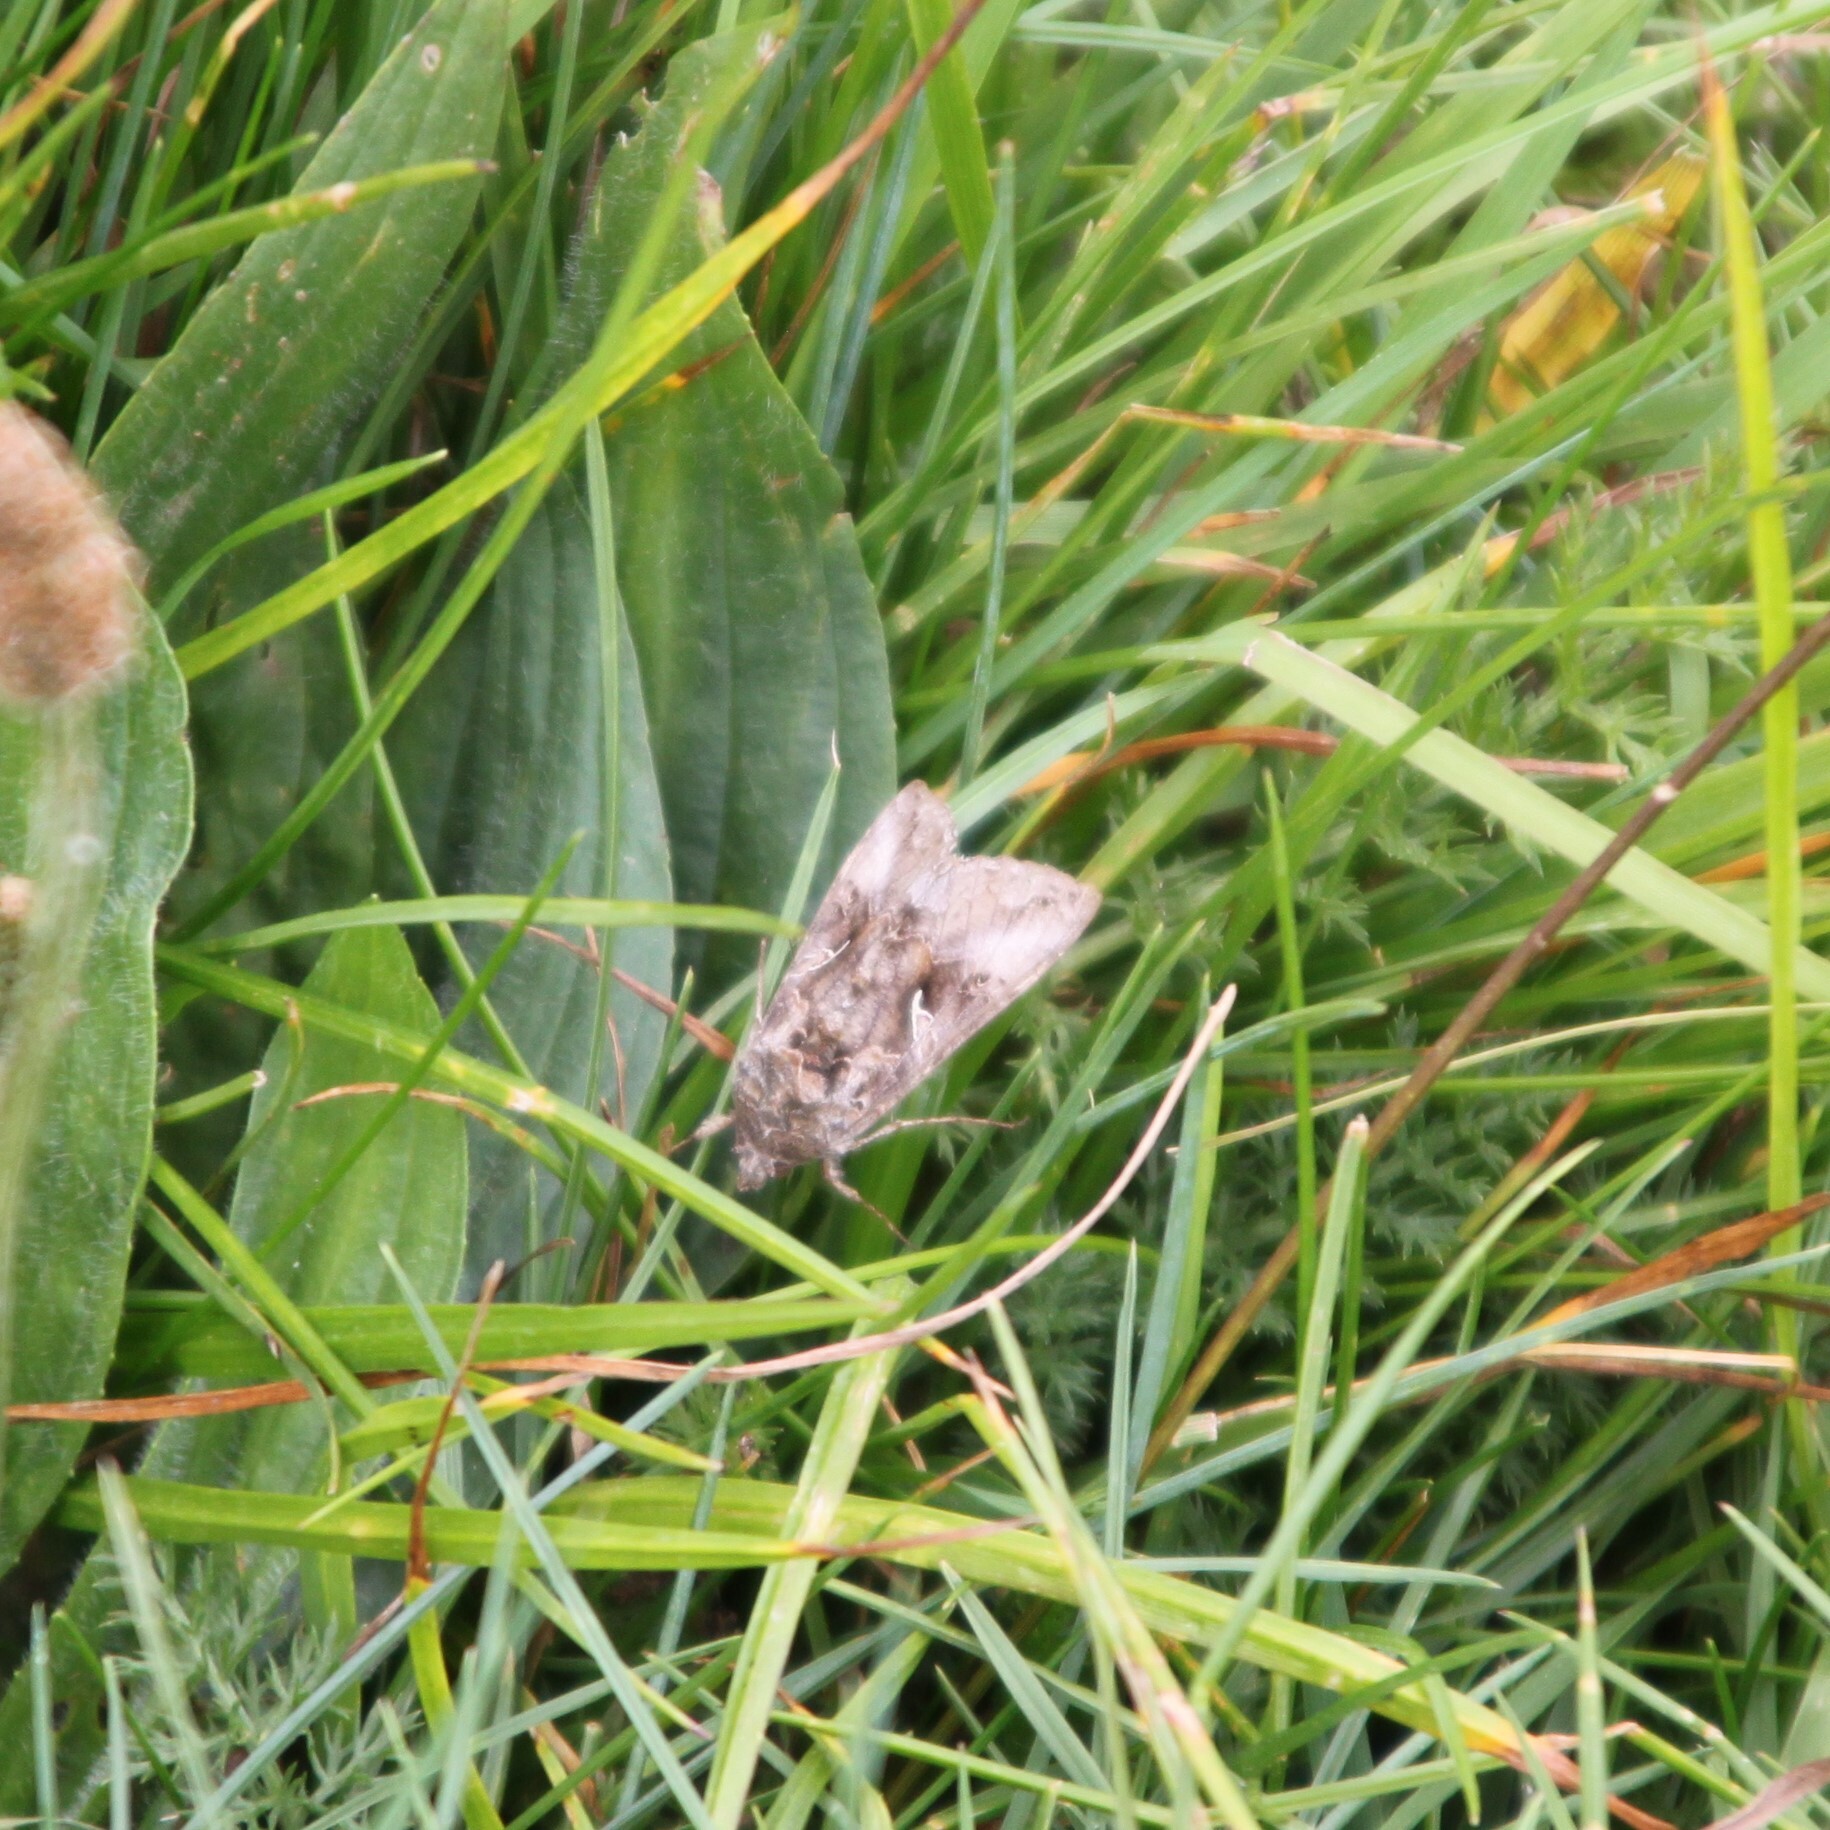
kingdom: Animalia
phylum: Arthropoda
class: Insecta
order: Lepidoptera
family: Noctuidae
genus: Autographa
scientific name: Autographa gamma
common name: Silver y
